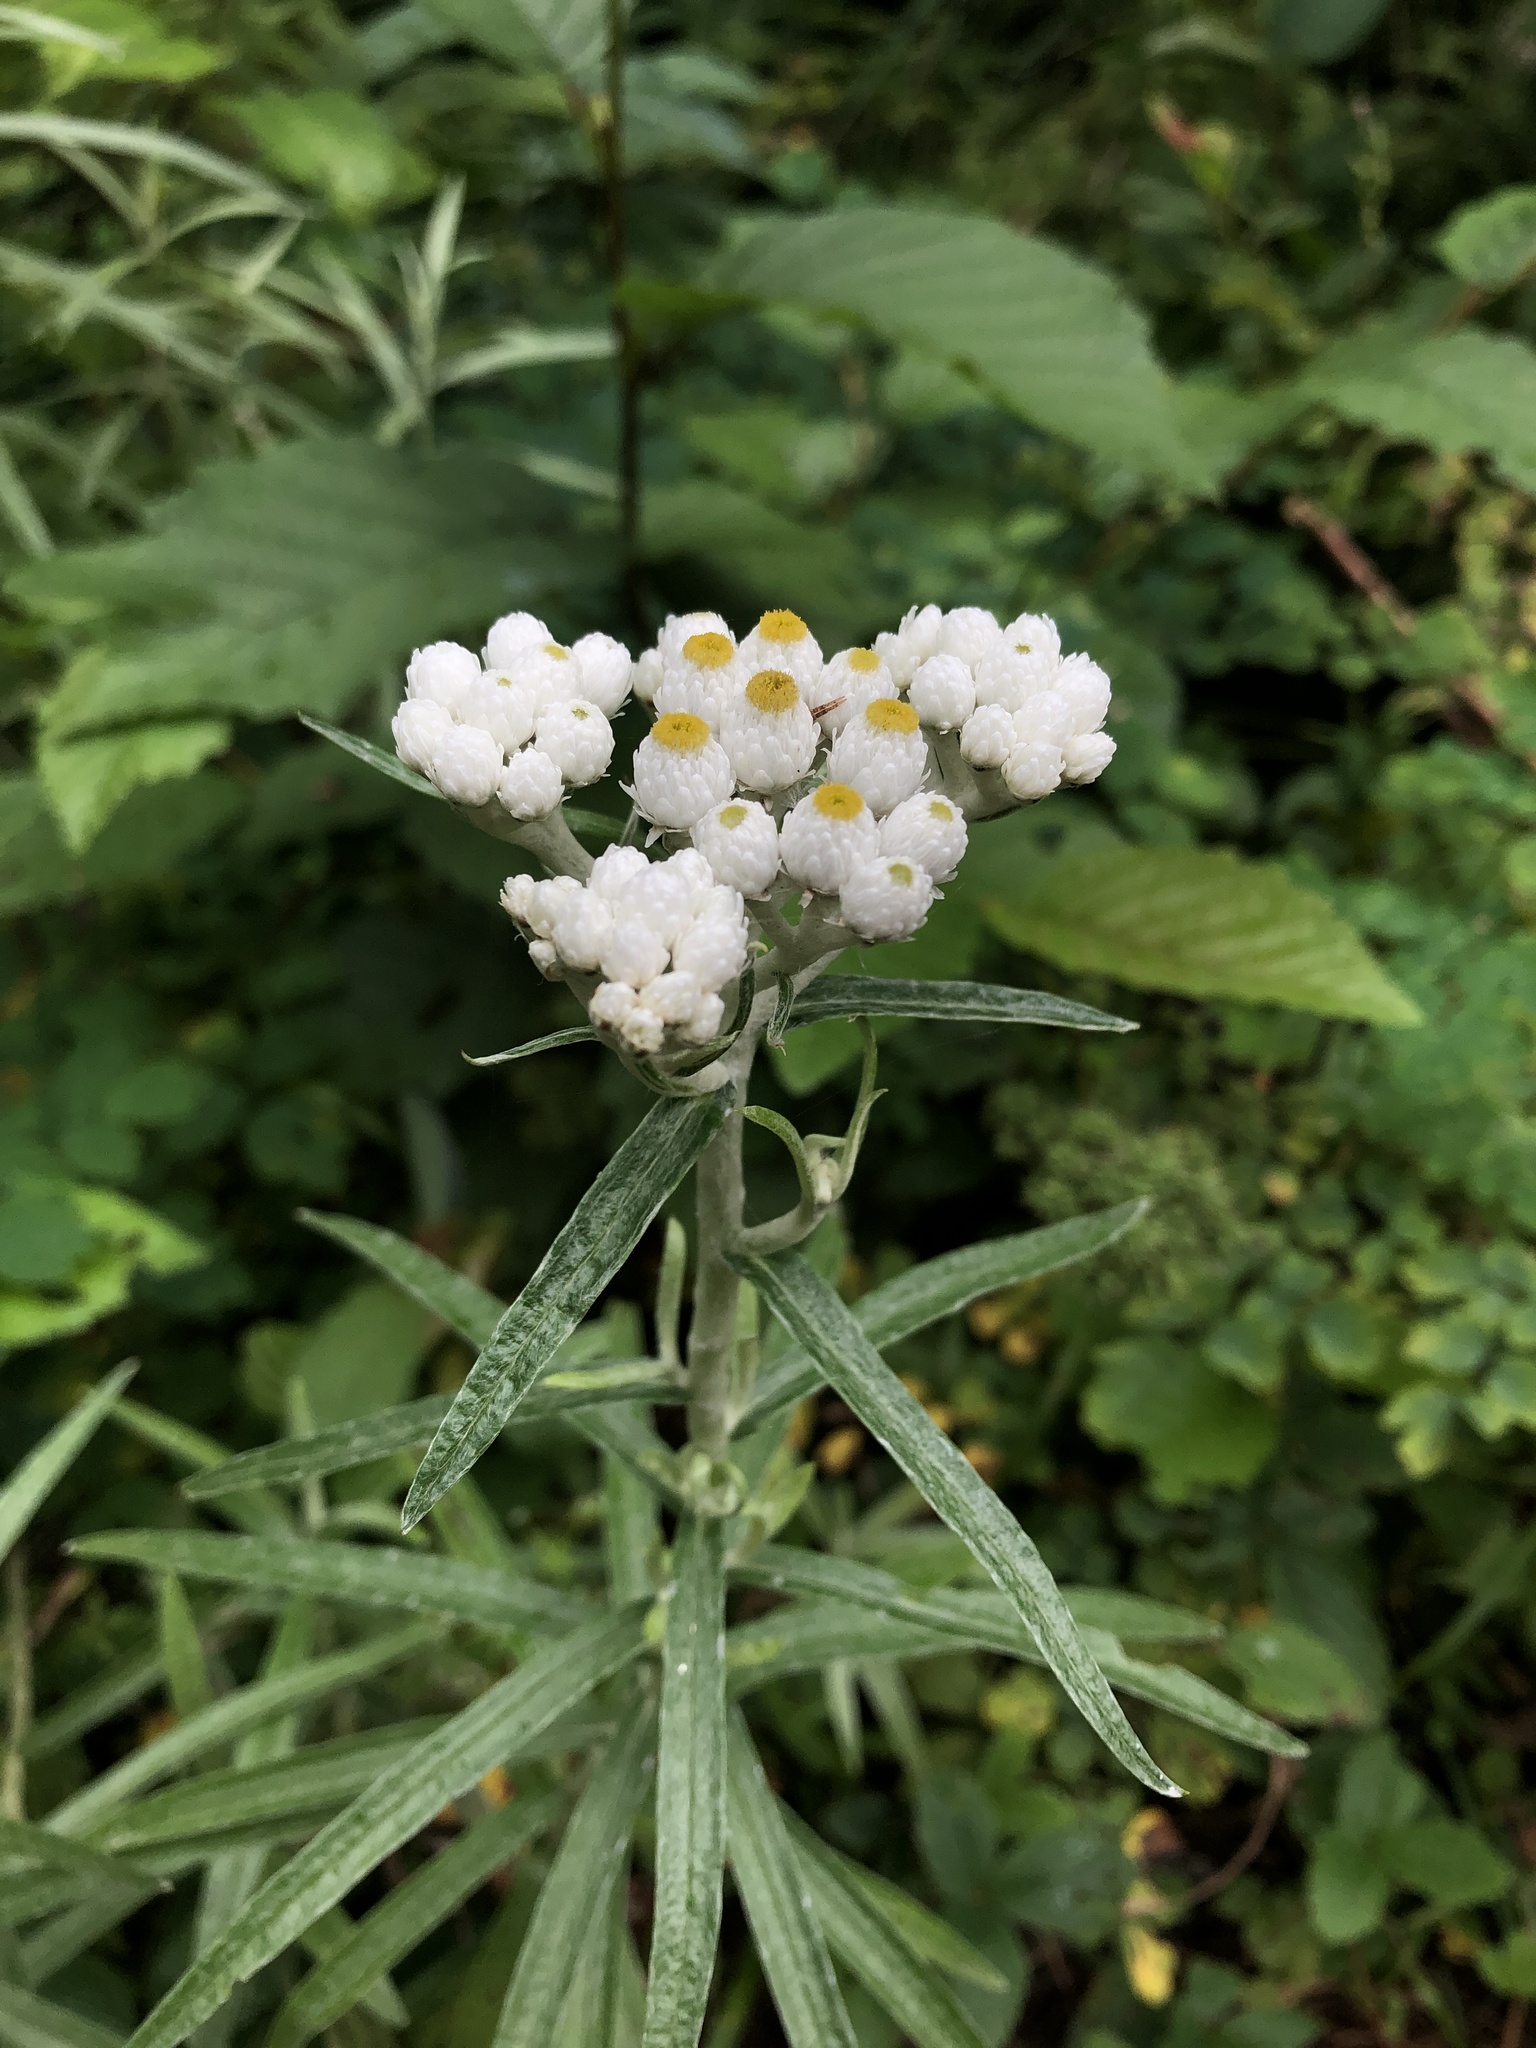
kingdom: Plantae
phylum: Tracheophyta
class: Magnoliopsida
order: Asterales
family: Asteraceae
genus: Anaphalis
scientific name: Anaphalis margaritacea
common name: Pearly everlasting
